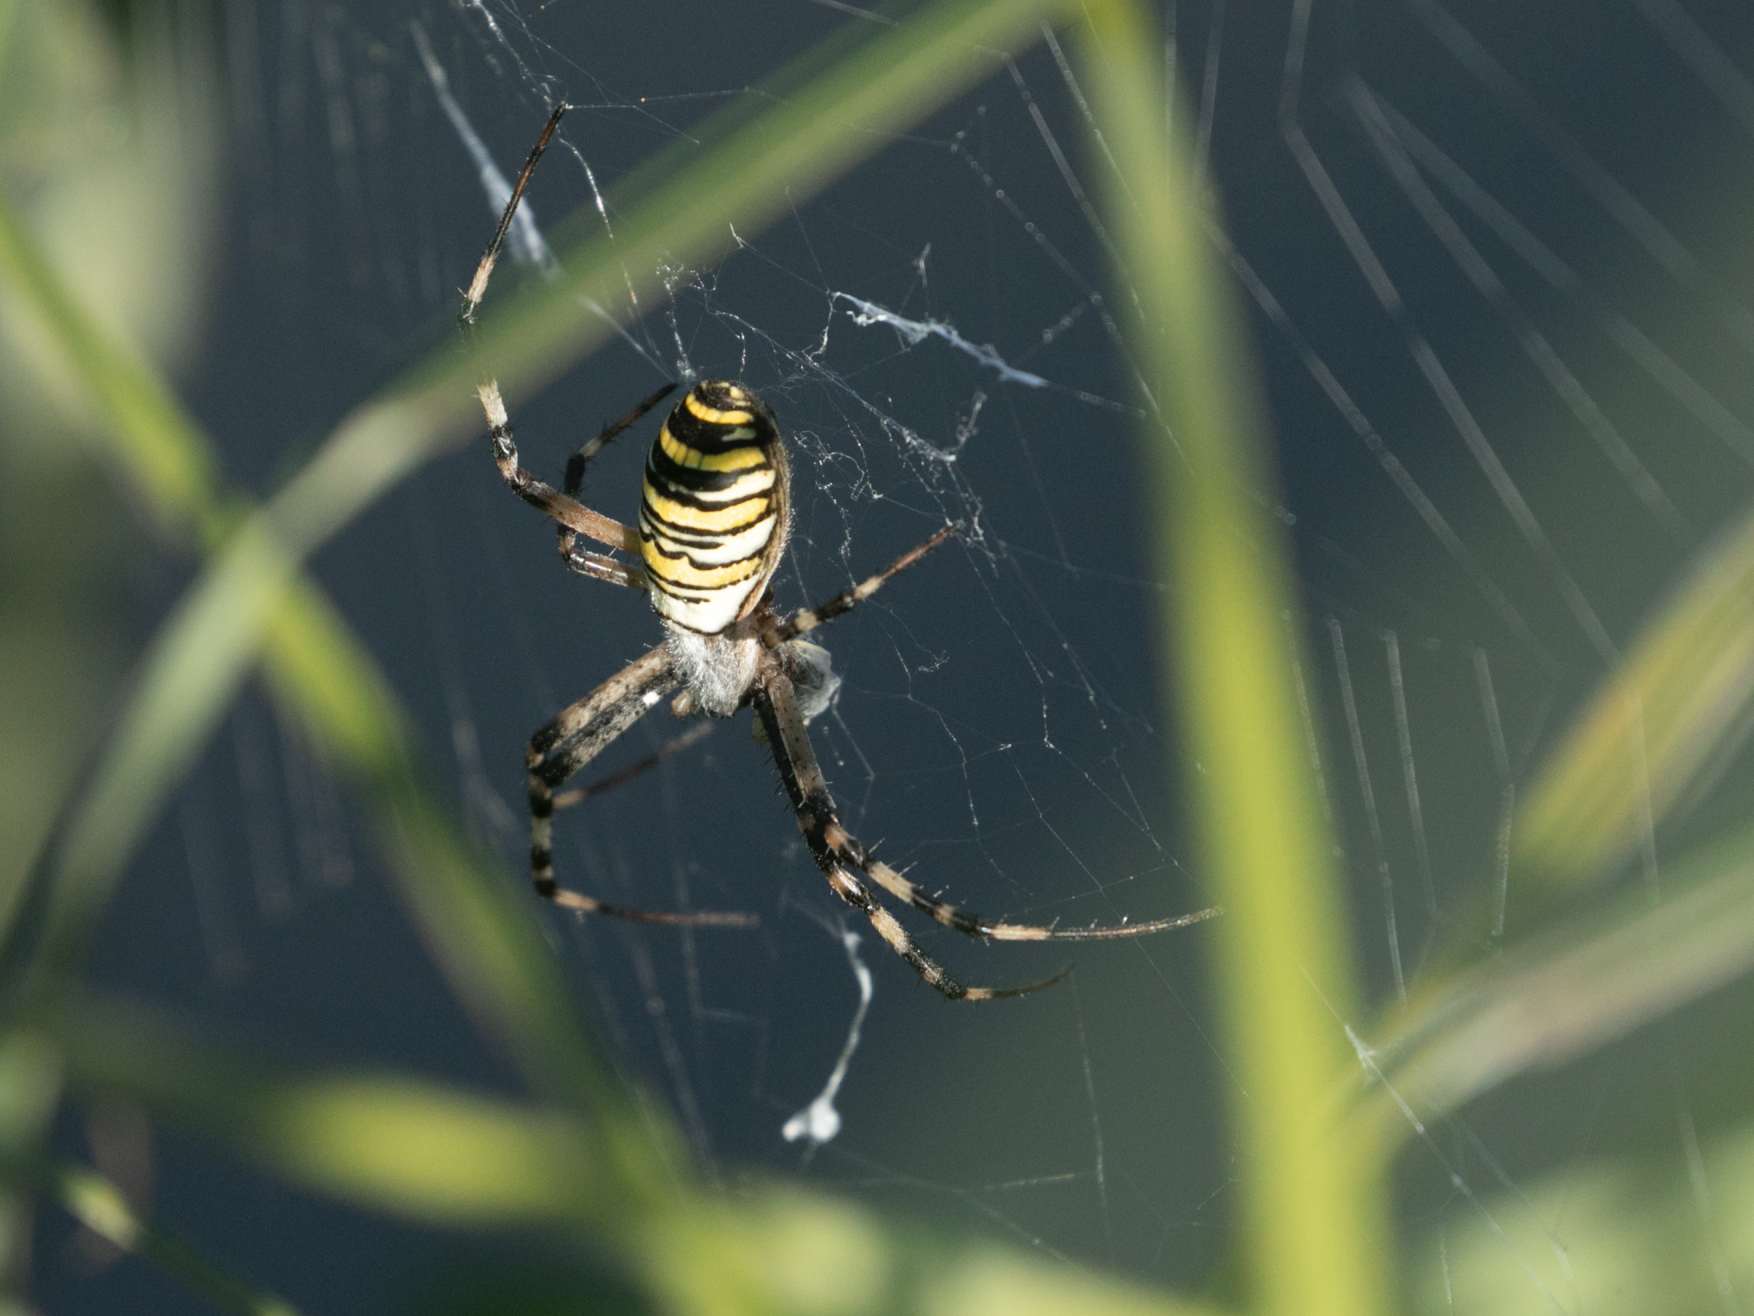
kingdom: Animalia
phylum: Arthropoda
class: Arachnida
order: Araneae
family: Araneidae
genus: Argiope
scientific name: Argiope bruennichi
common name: Wasp spider
